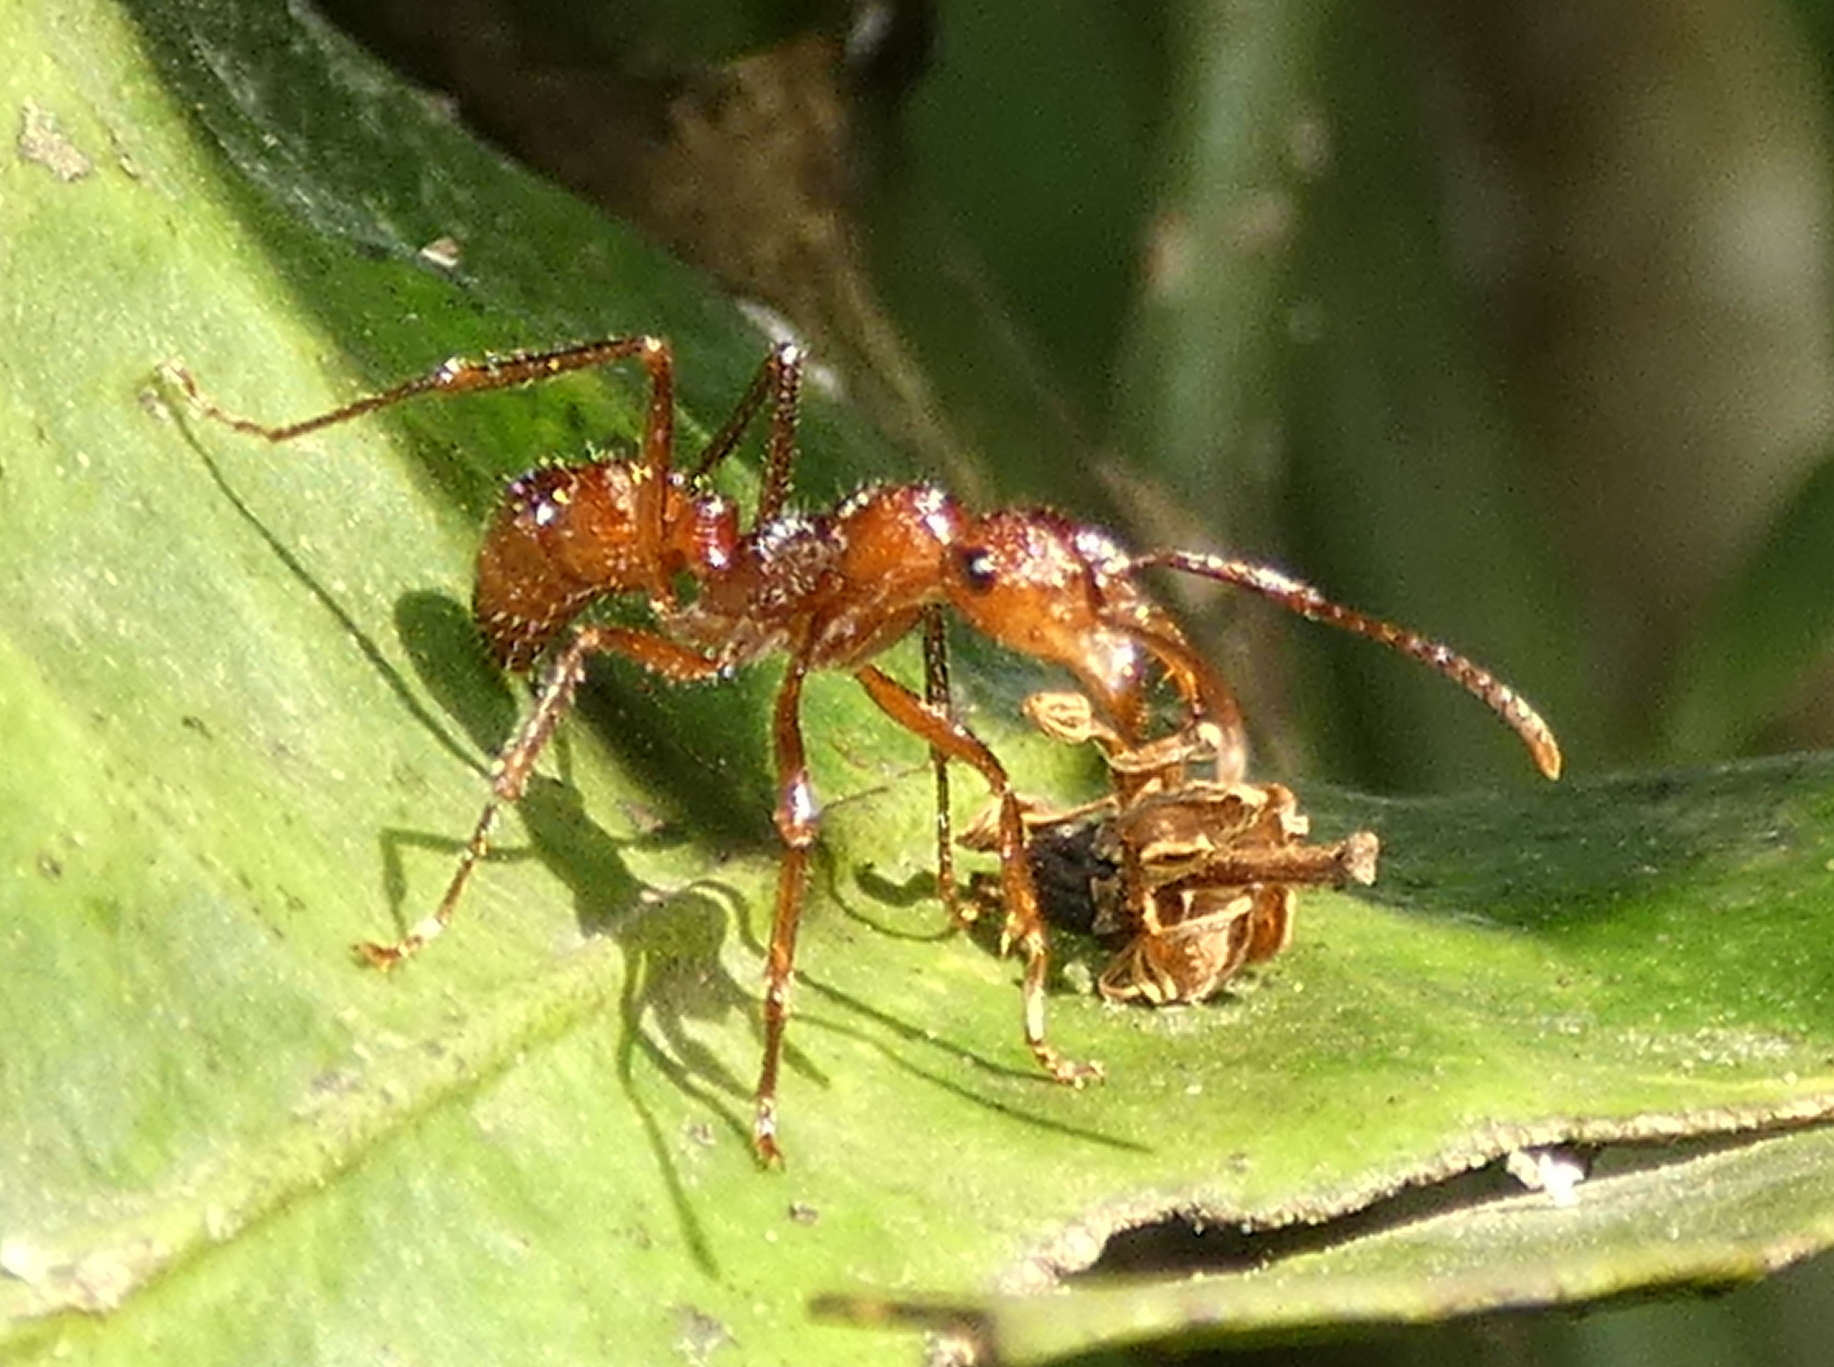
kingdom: Animalia
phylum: Arthropoda
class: Insecta
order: Hymenoptera
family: Formicidae
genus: Ectatomma
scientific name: Ectatomma tuberculatum
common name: Ant
